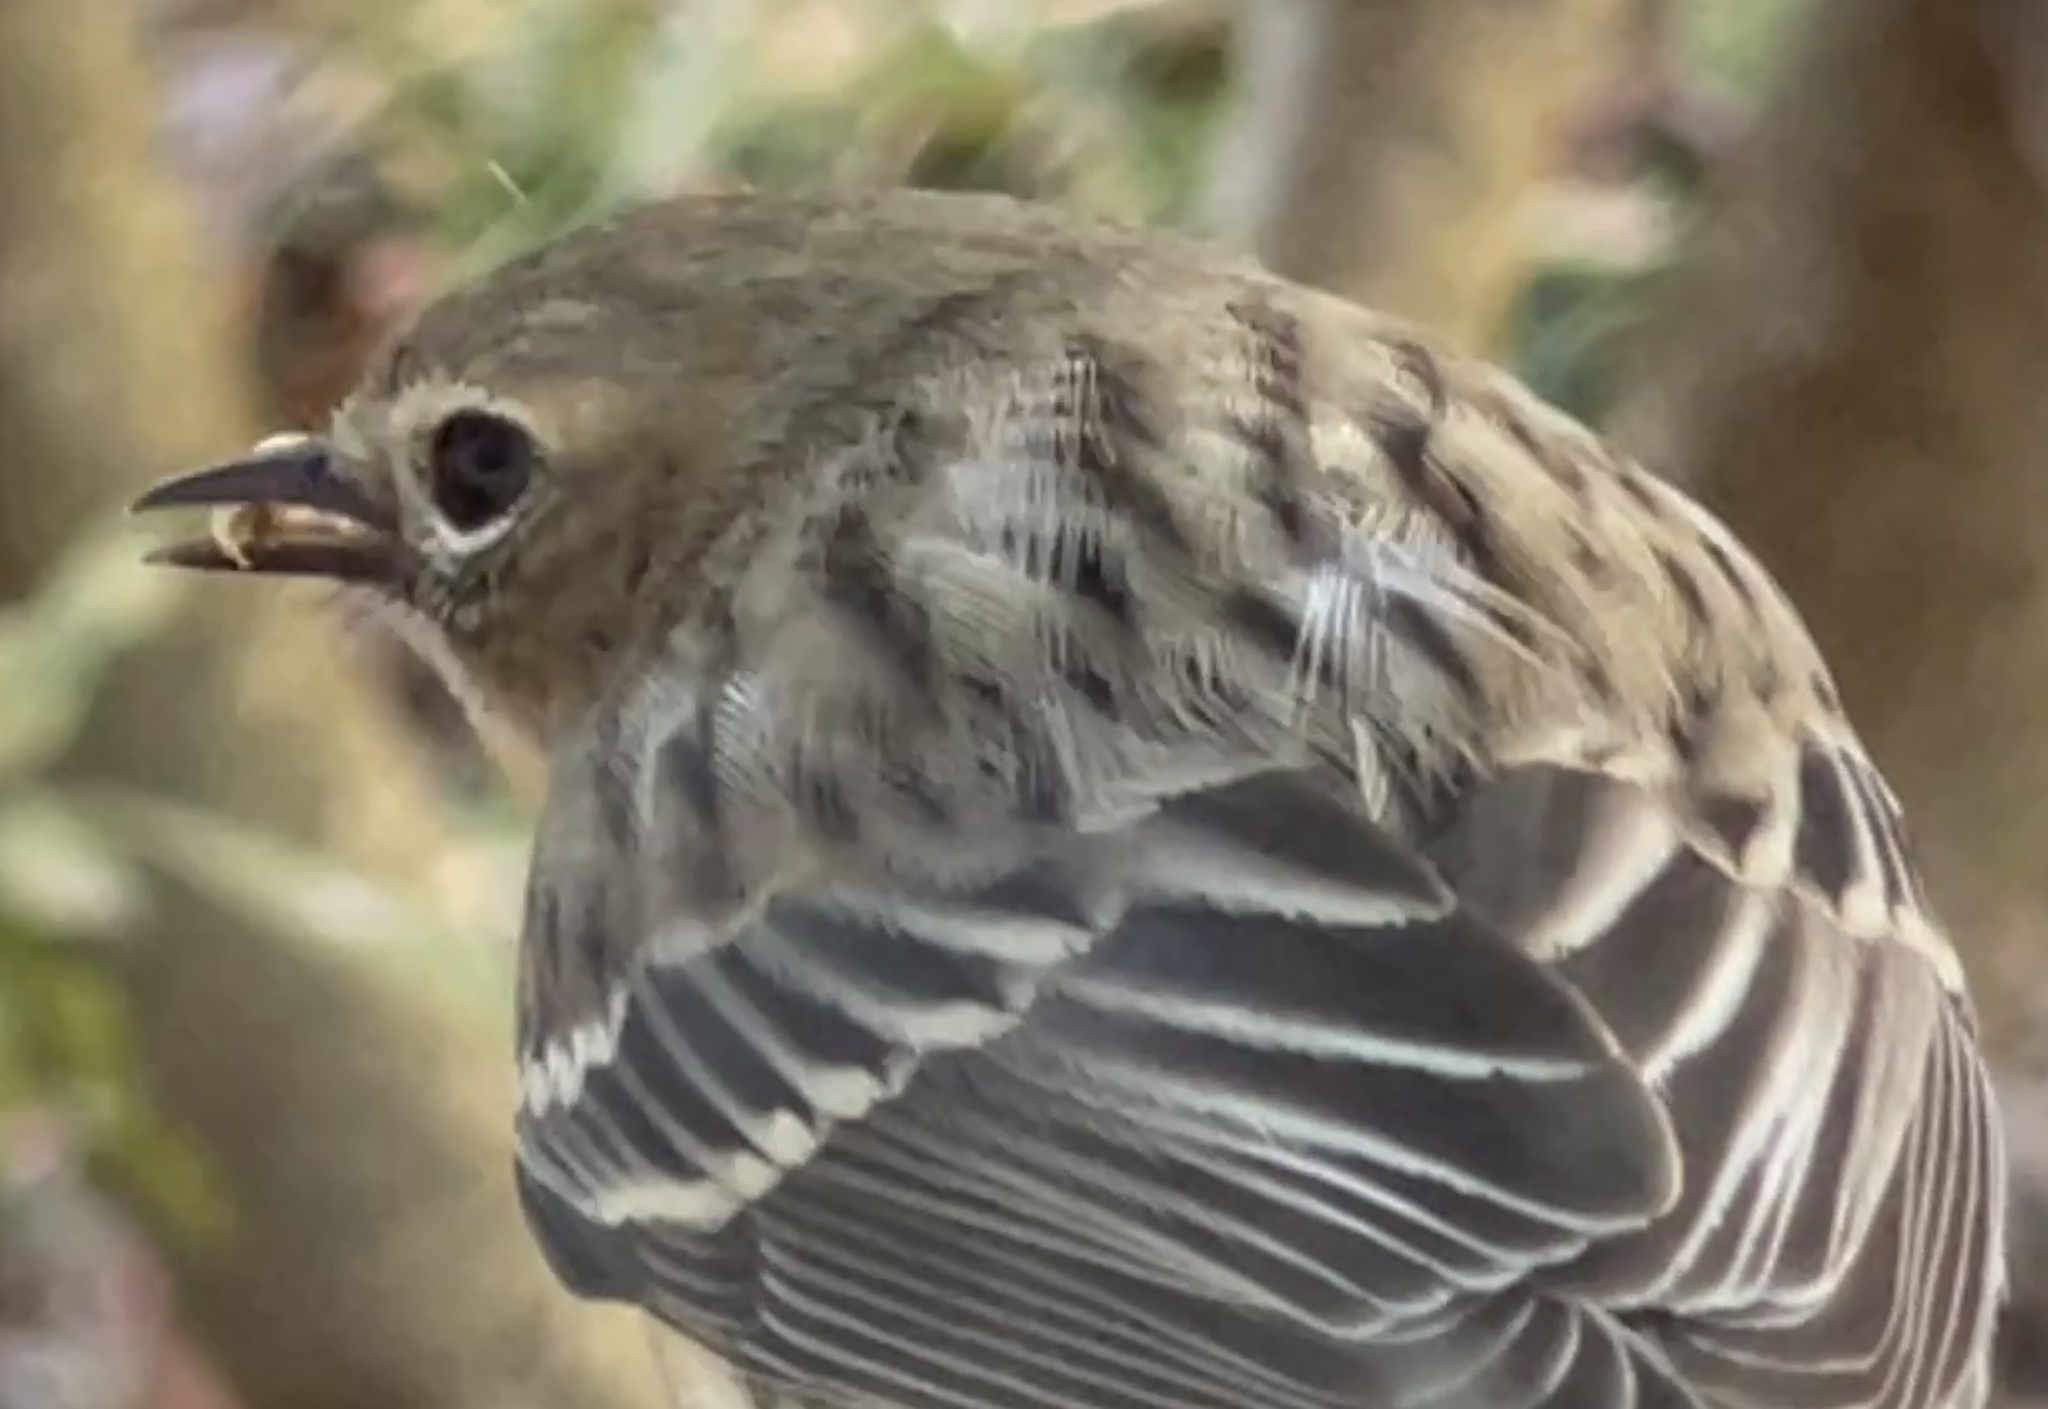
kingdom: Animalia
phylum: Chordata
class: Aves
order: Passeriformes
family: Parulidae
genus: Setophaga
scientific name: Setophaga coronata
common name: Myrtle warbler
